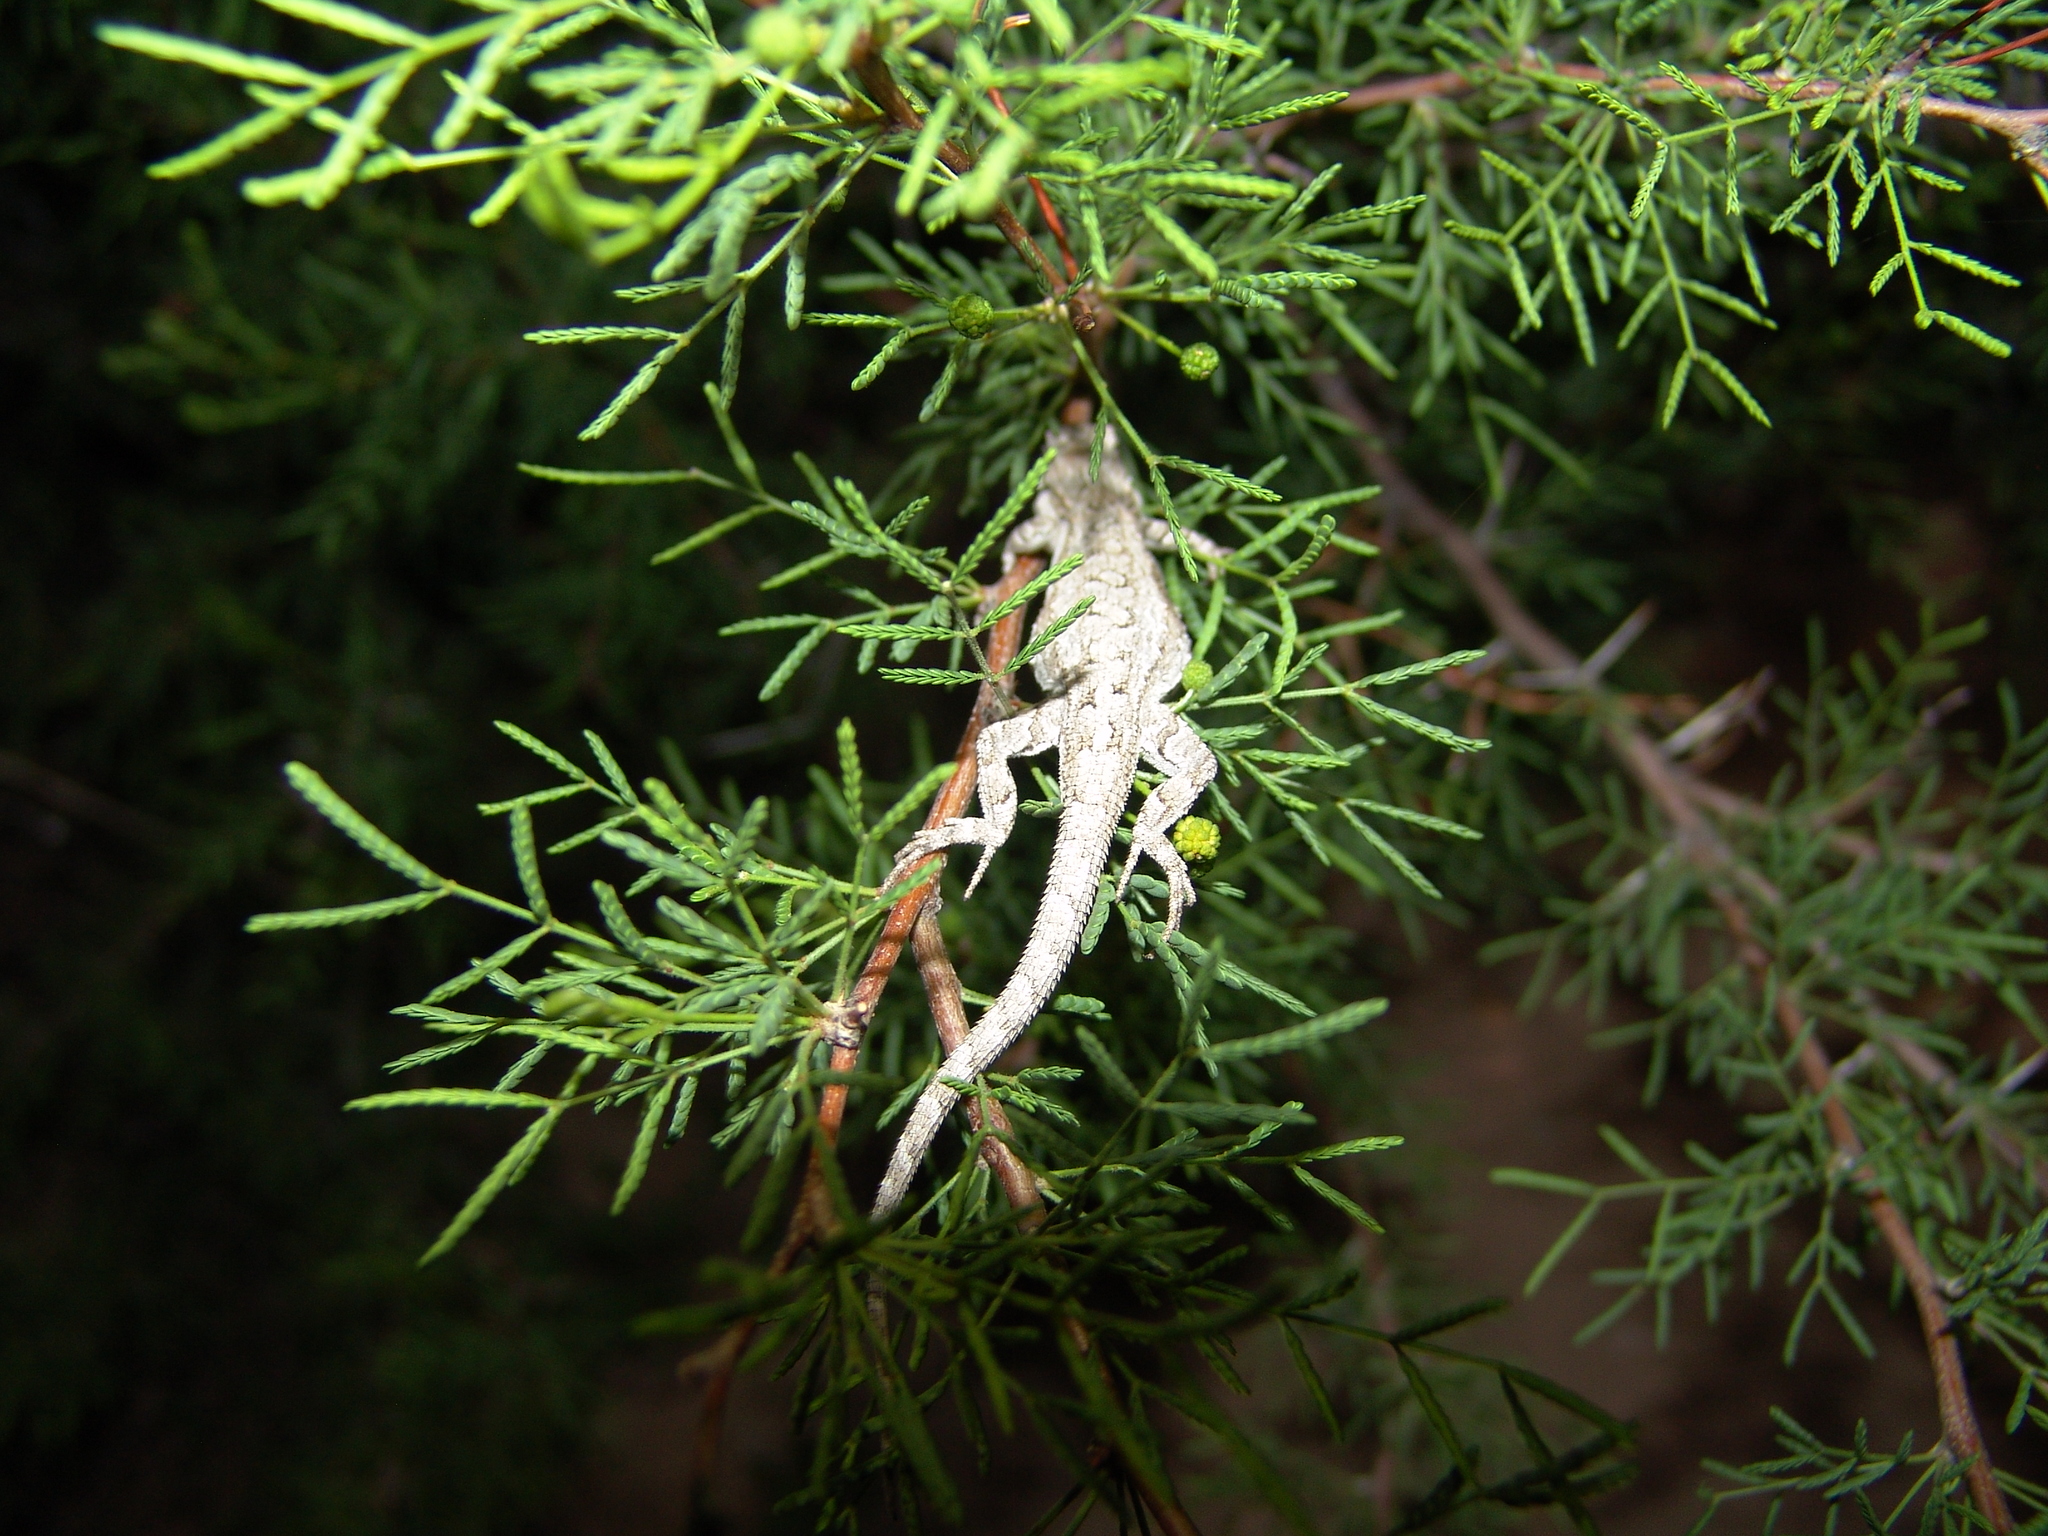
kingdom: Animalia
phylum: Chordata
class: Squamata
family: Phrynosomatidae
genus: Urosaurus
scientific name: Urosaurus ornatus
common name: Ornate tree lizard
